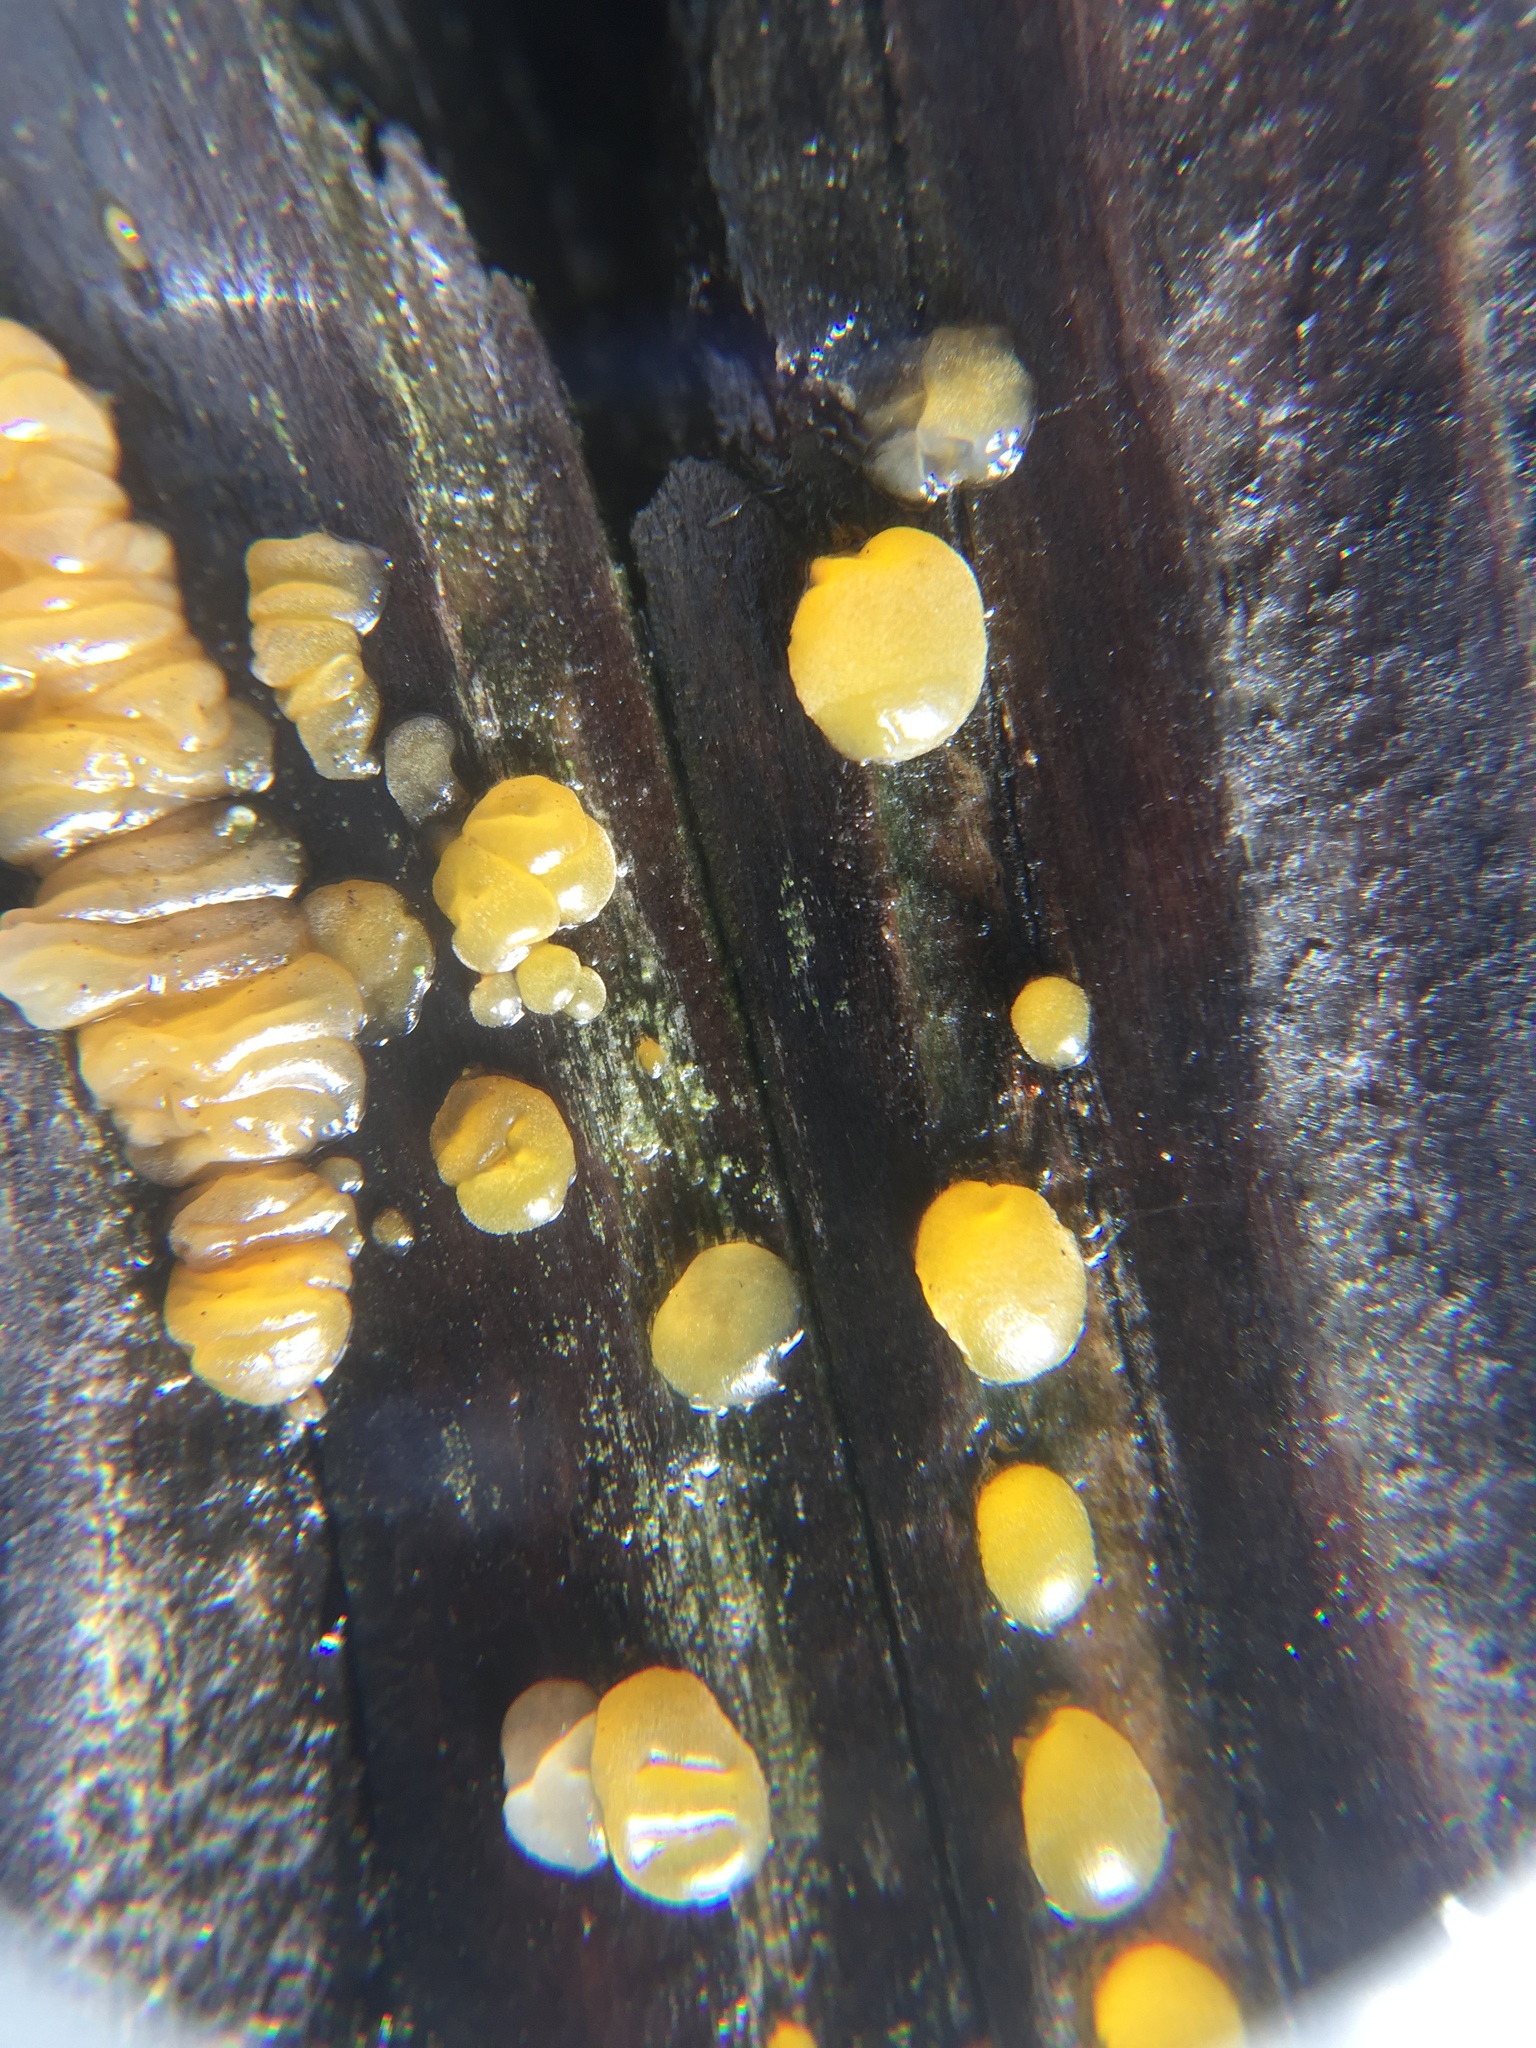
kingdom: Fungi
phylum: Basidiomycota
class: Dacrymycetes
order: Dacrymycetales
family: Dacrymycetaceae
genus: Dacrymyces
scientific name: Dacrymyces capitatus
